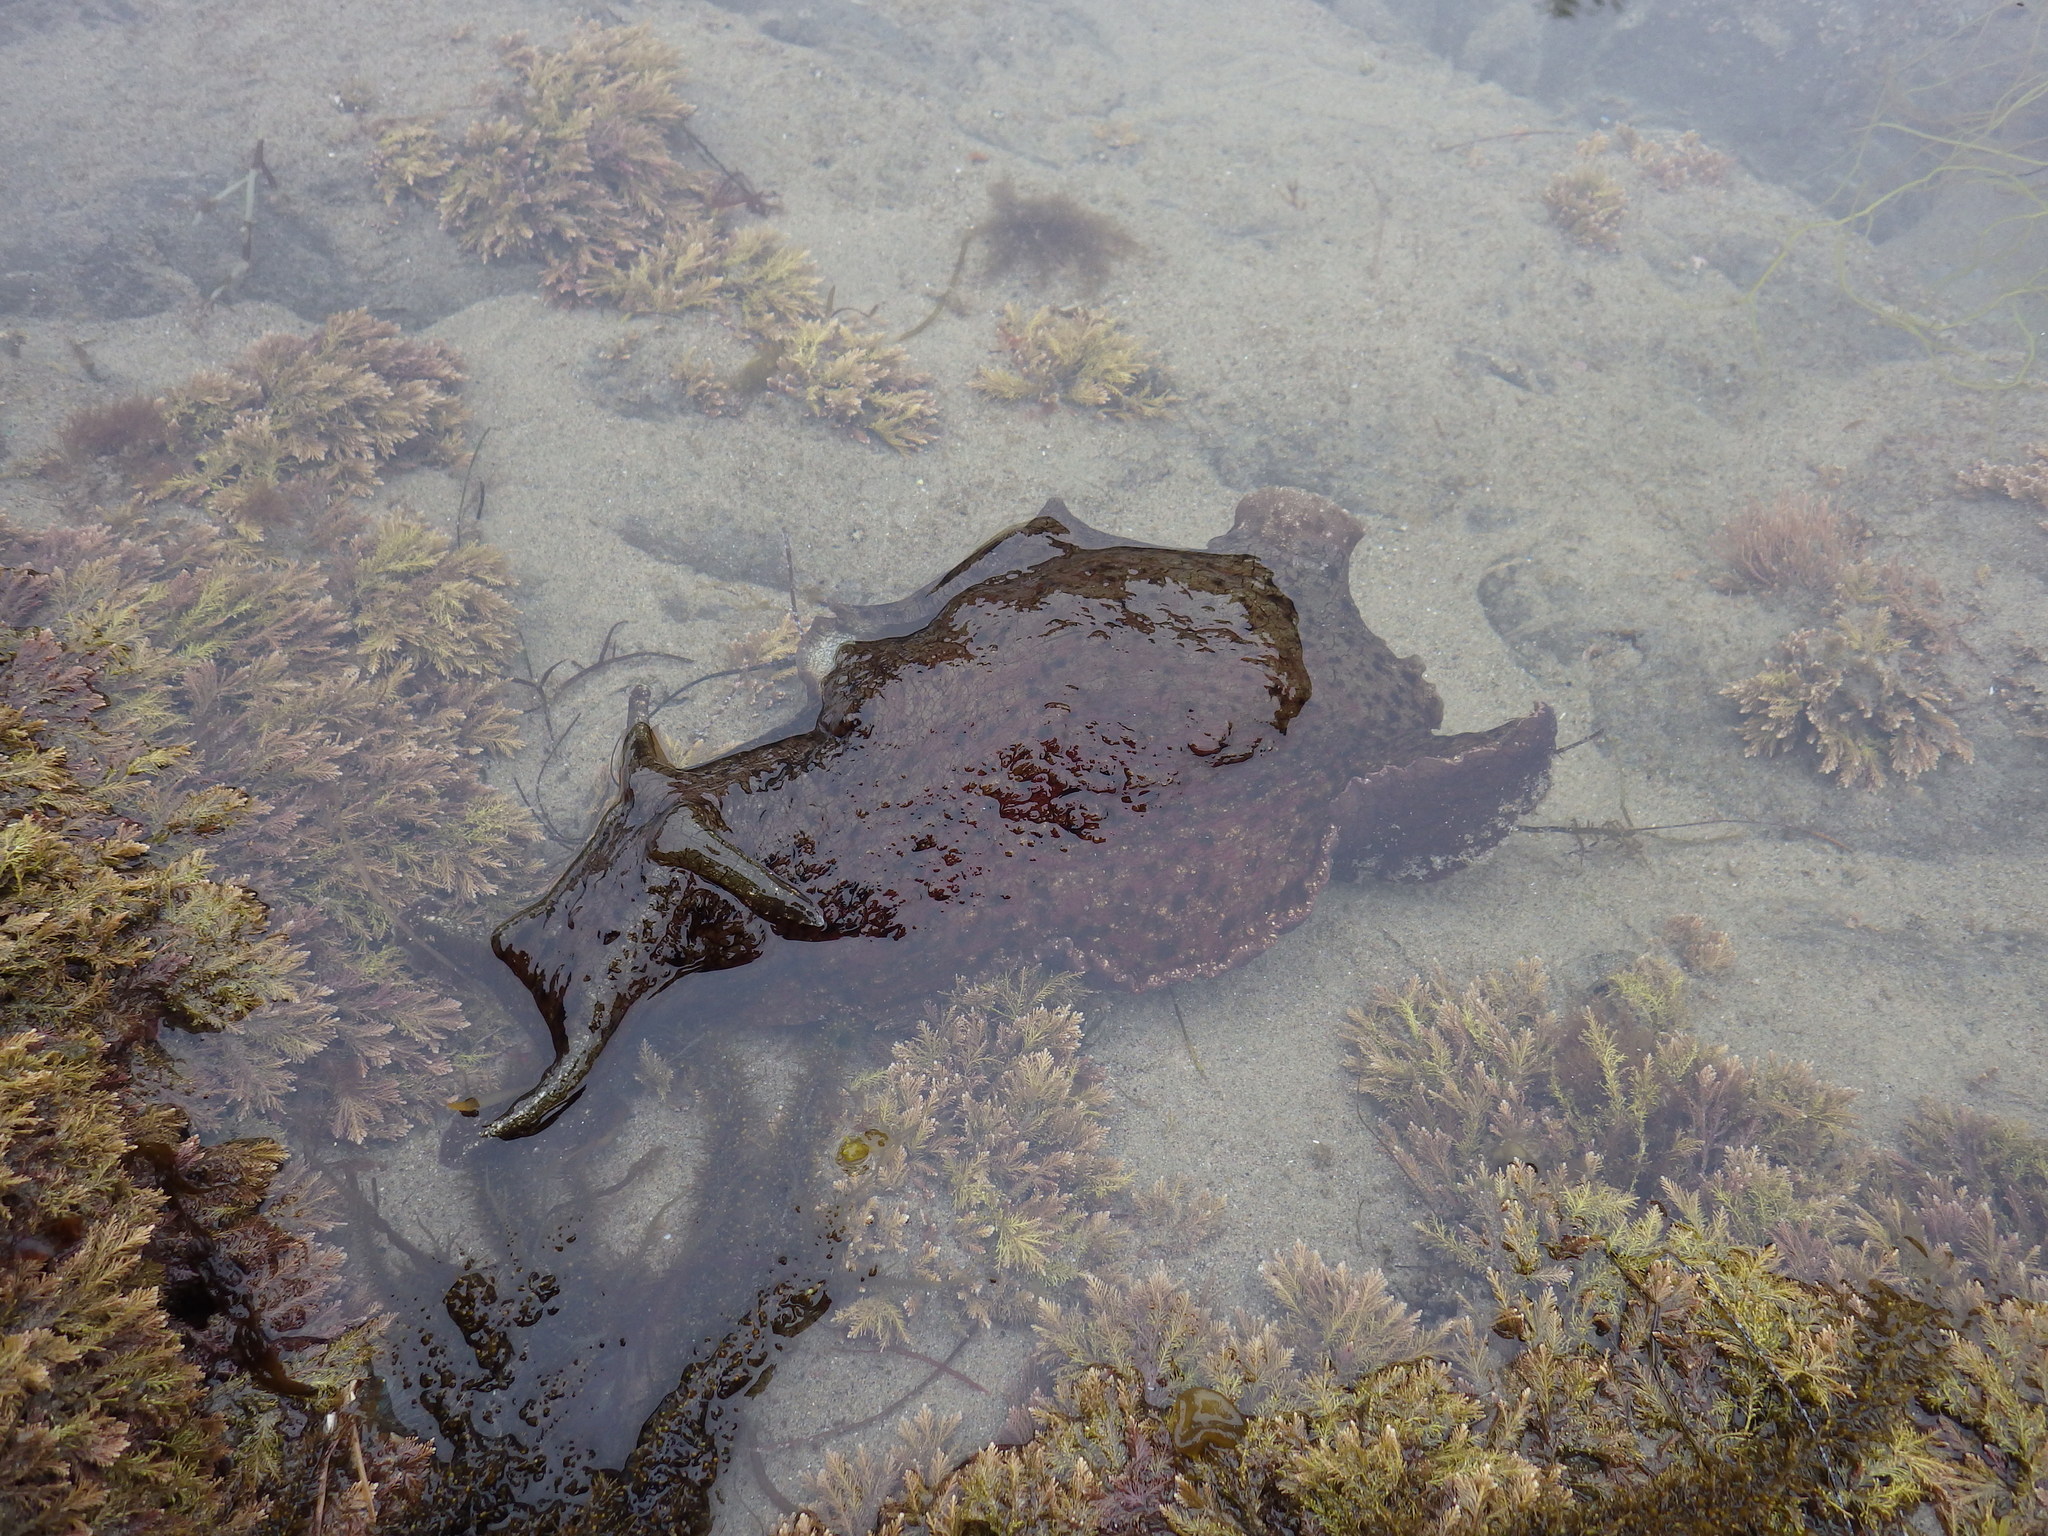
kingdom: Animalia
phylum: Mollusca
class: Gastropoda
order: Aplysiida
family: Aplysiidae
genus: Aplysia
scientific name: Aplysia californica
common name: California seahare
